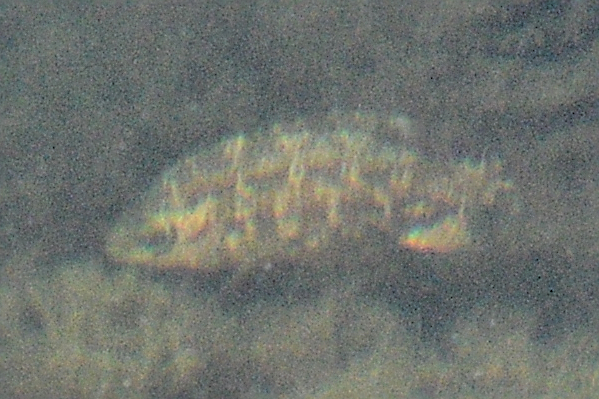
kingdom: Animalia
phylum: Chordata
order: Perciformes
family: Labridae
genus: Symphodus
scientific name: Symphodus melops
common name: Corkwing
